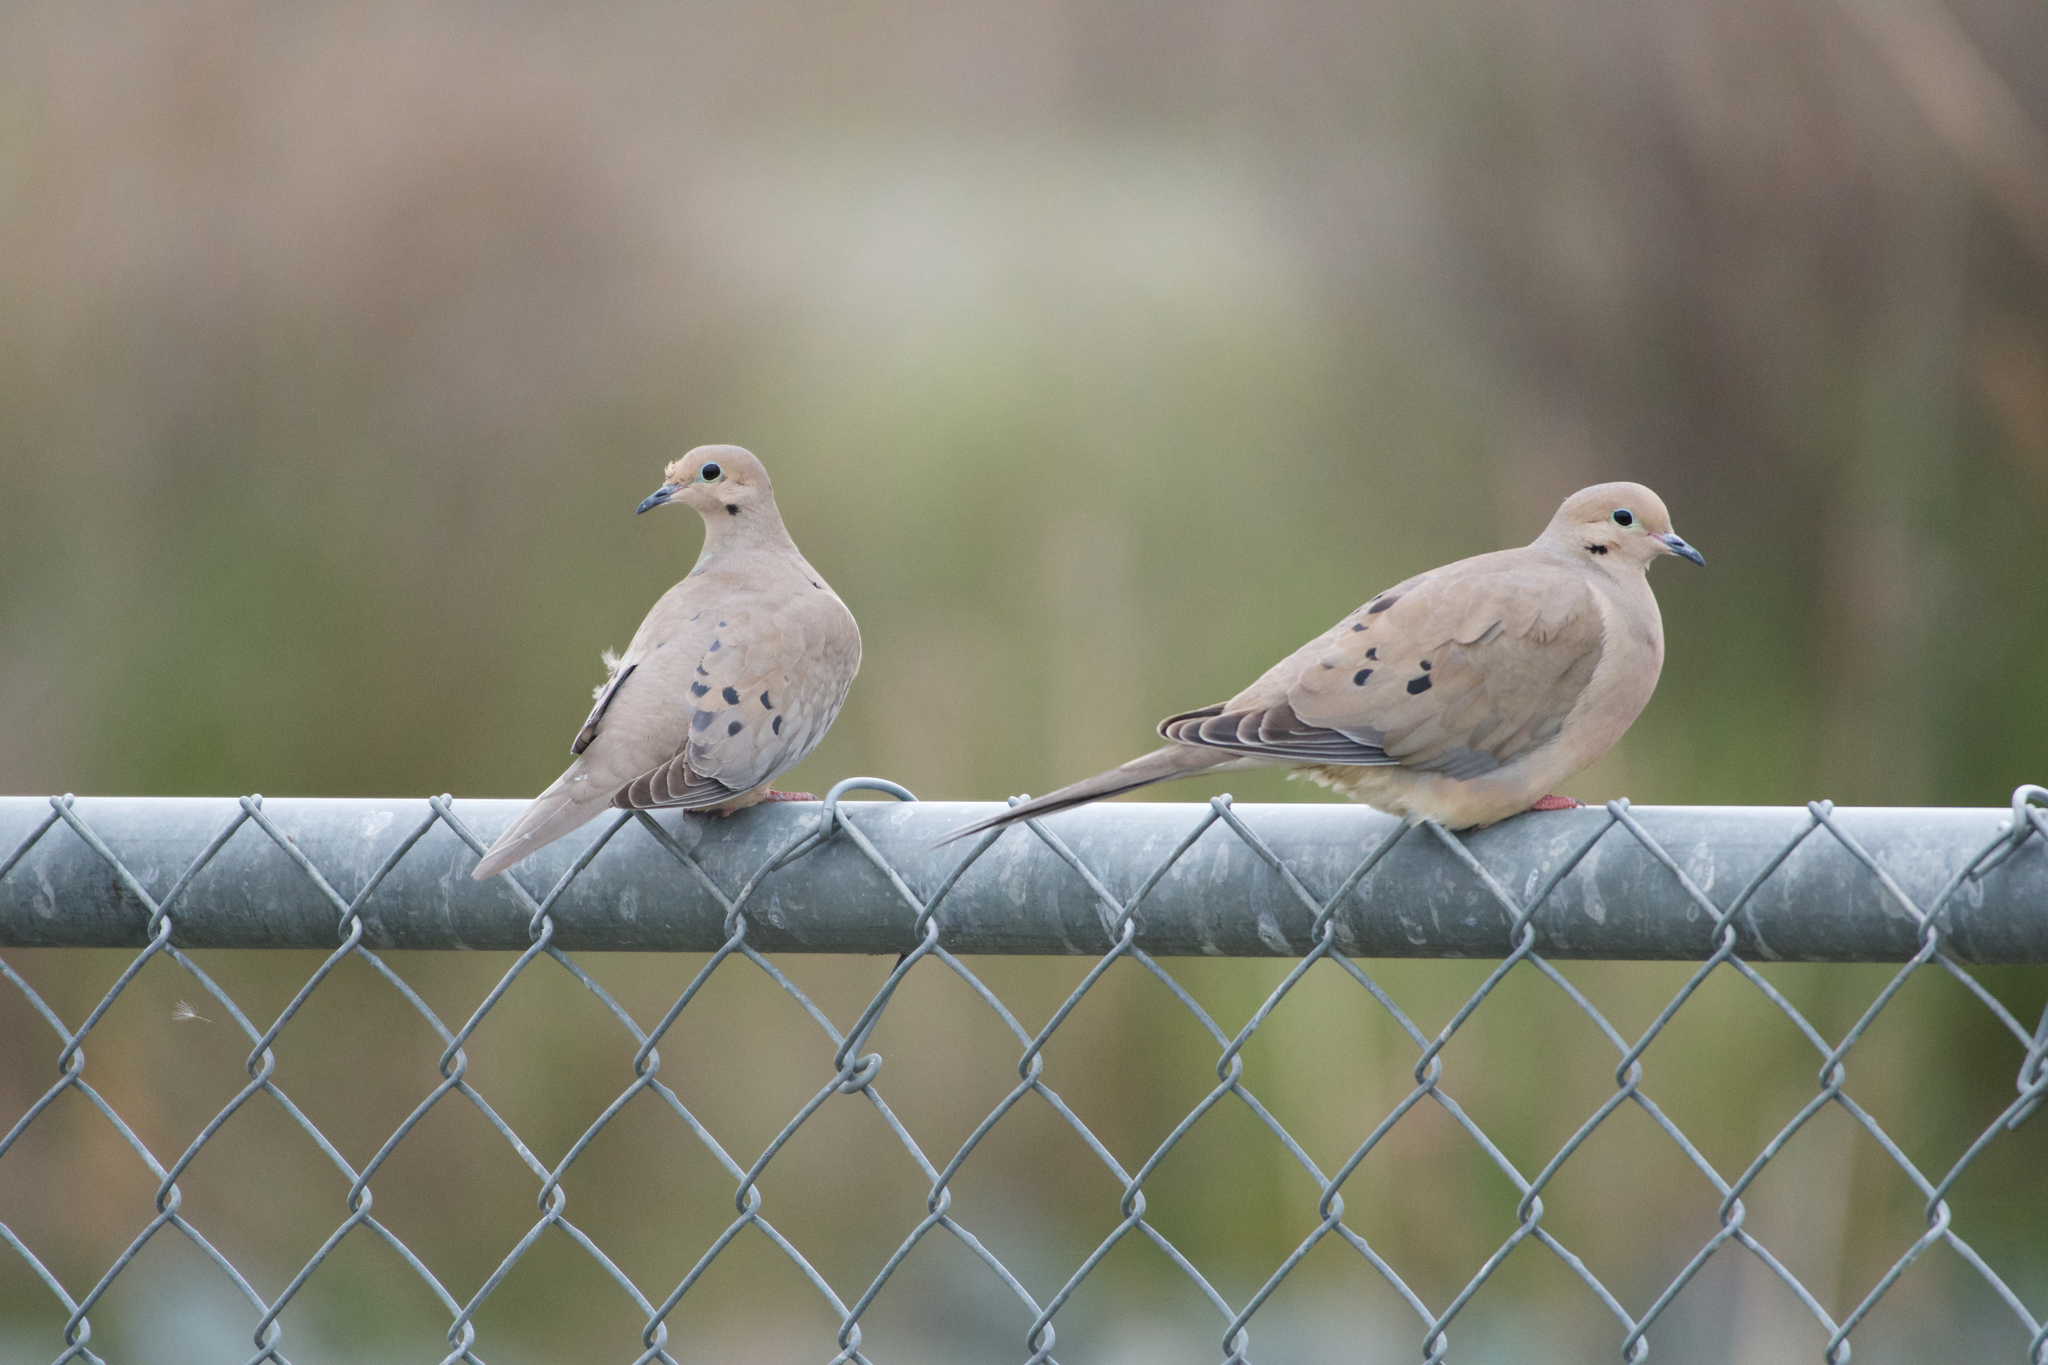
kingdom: Animalia
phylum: Chordata
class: Aves
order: Columbiformes
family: Columbidae
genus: Zenaida
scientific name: Zenaida macroura
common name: Mourning dove
